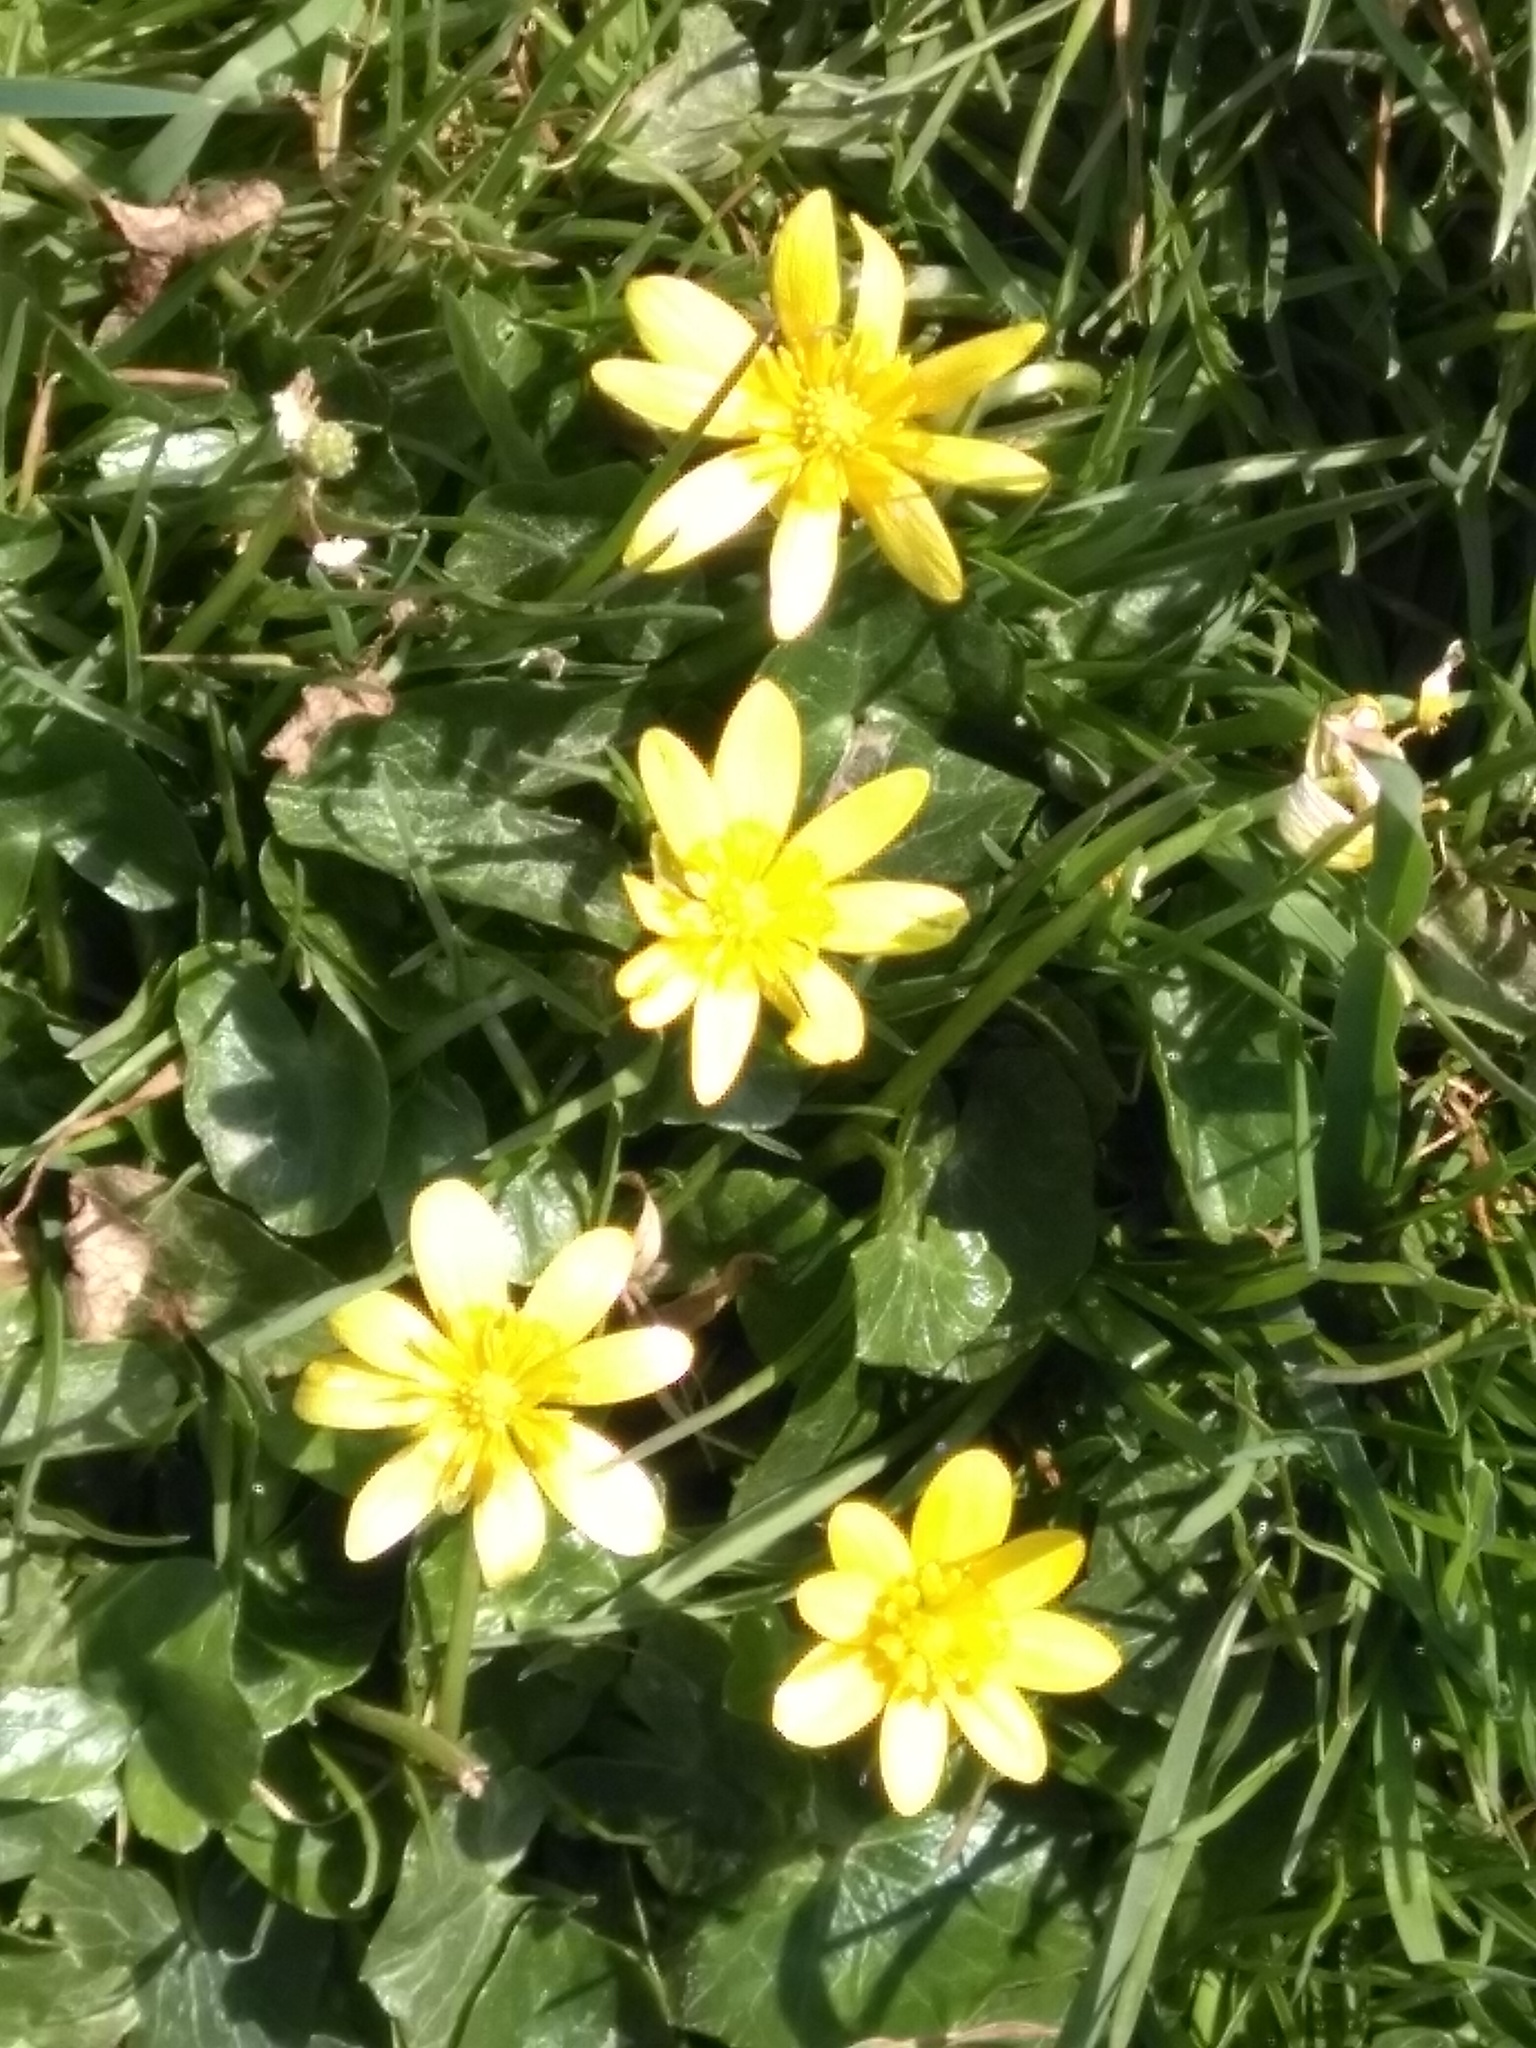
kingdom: Plantae
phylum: Tracheophyta
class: Magnoliopsida
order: Ranunculales
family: Ranunculaceae
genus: Ficaria
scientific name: Ficaria verna
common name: Lesser celandine
